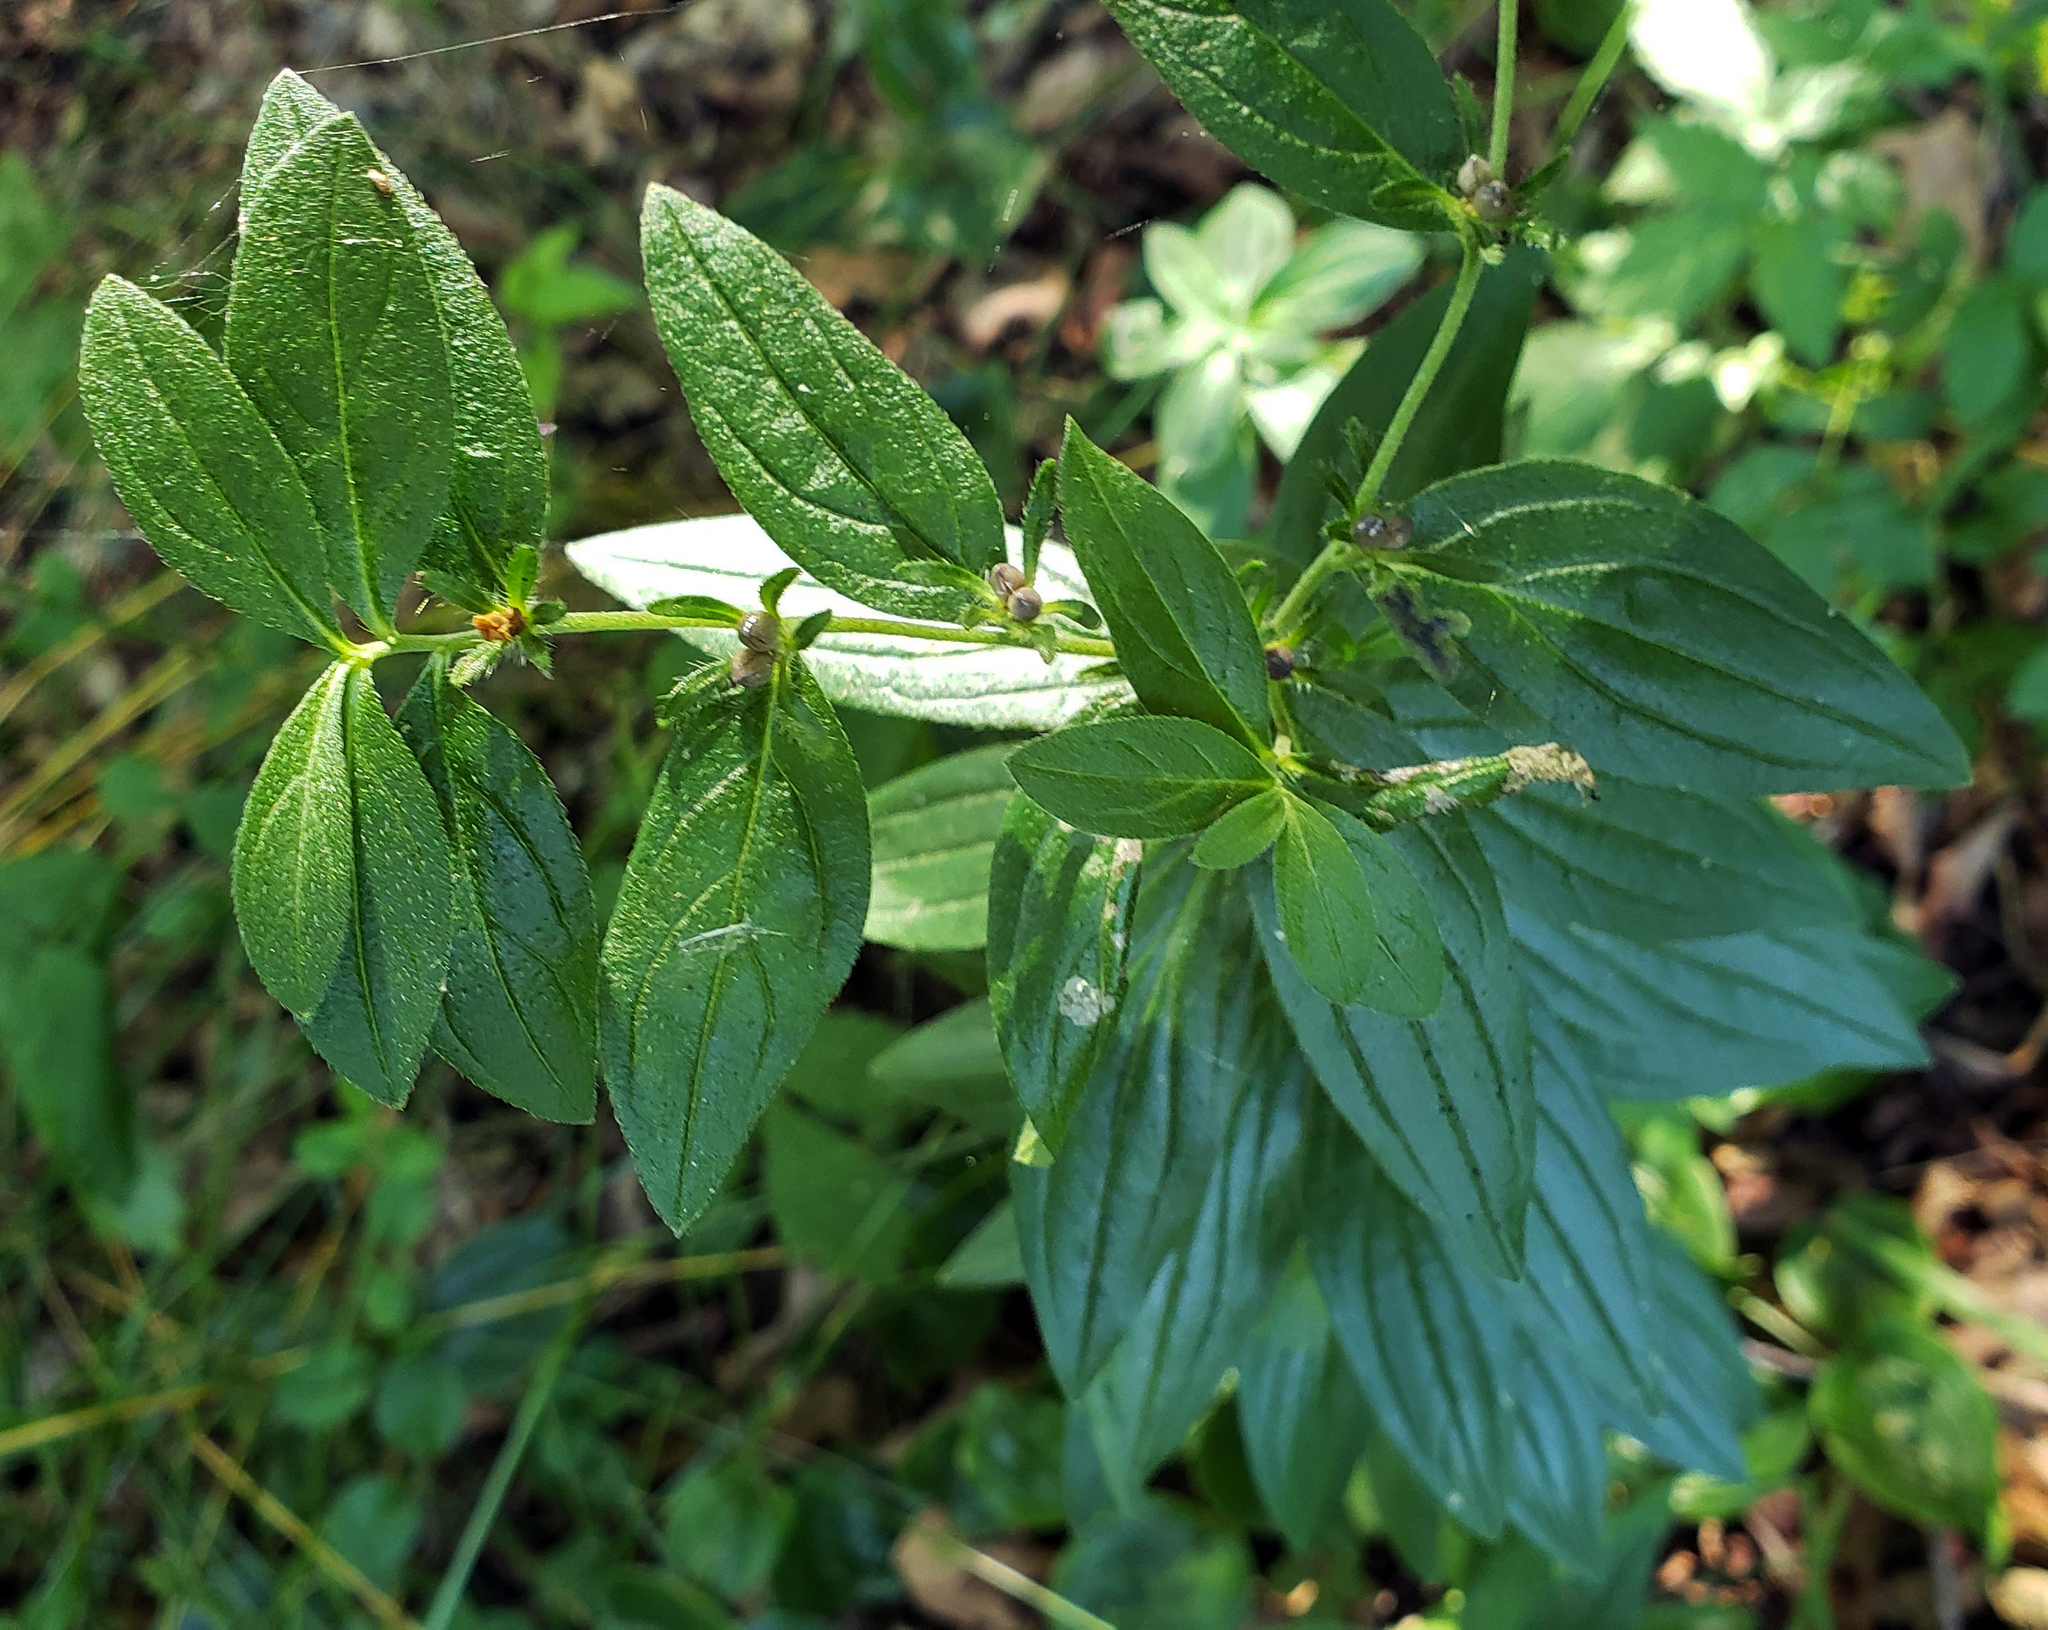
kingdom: Plantae
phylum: Tracheophyta
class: Magnoliopsida
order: Boraginales
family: Boraginaceae
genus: Lithospermum
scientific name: Lithospermum officinale
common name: Common gromwell
